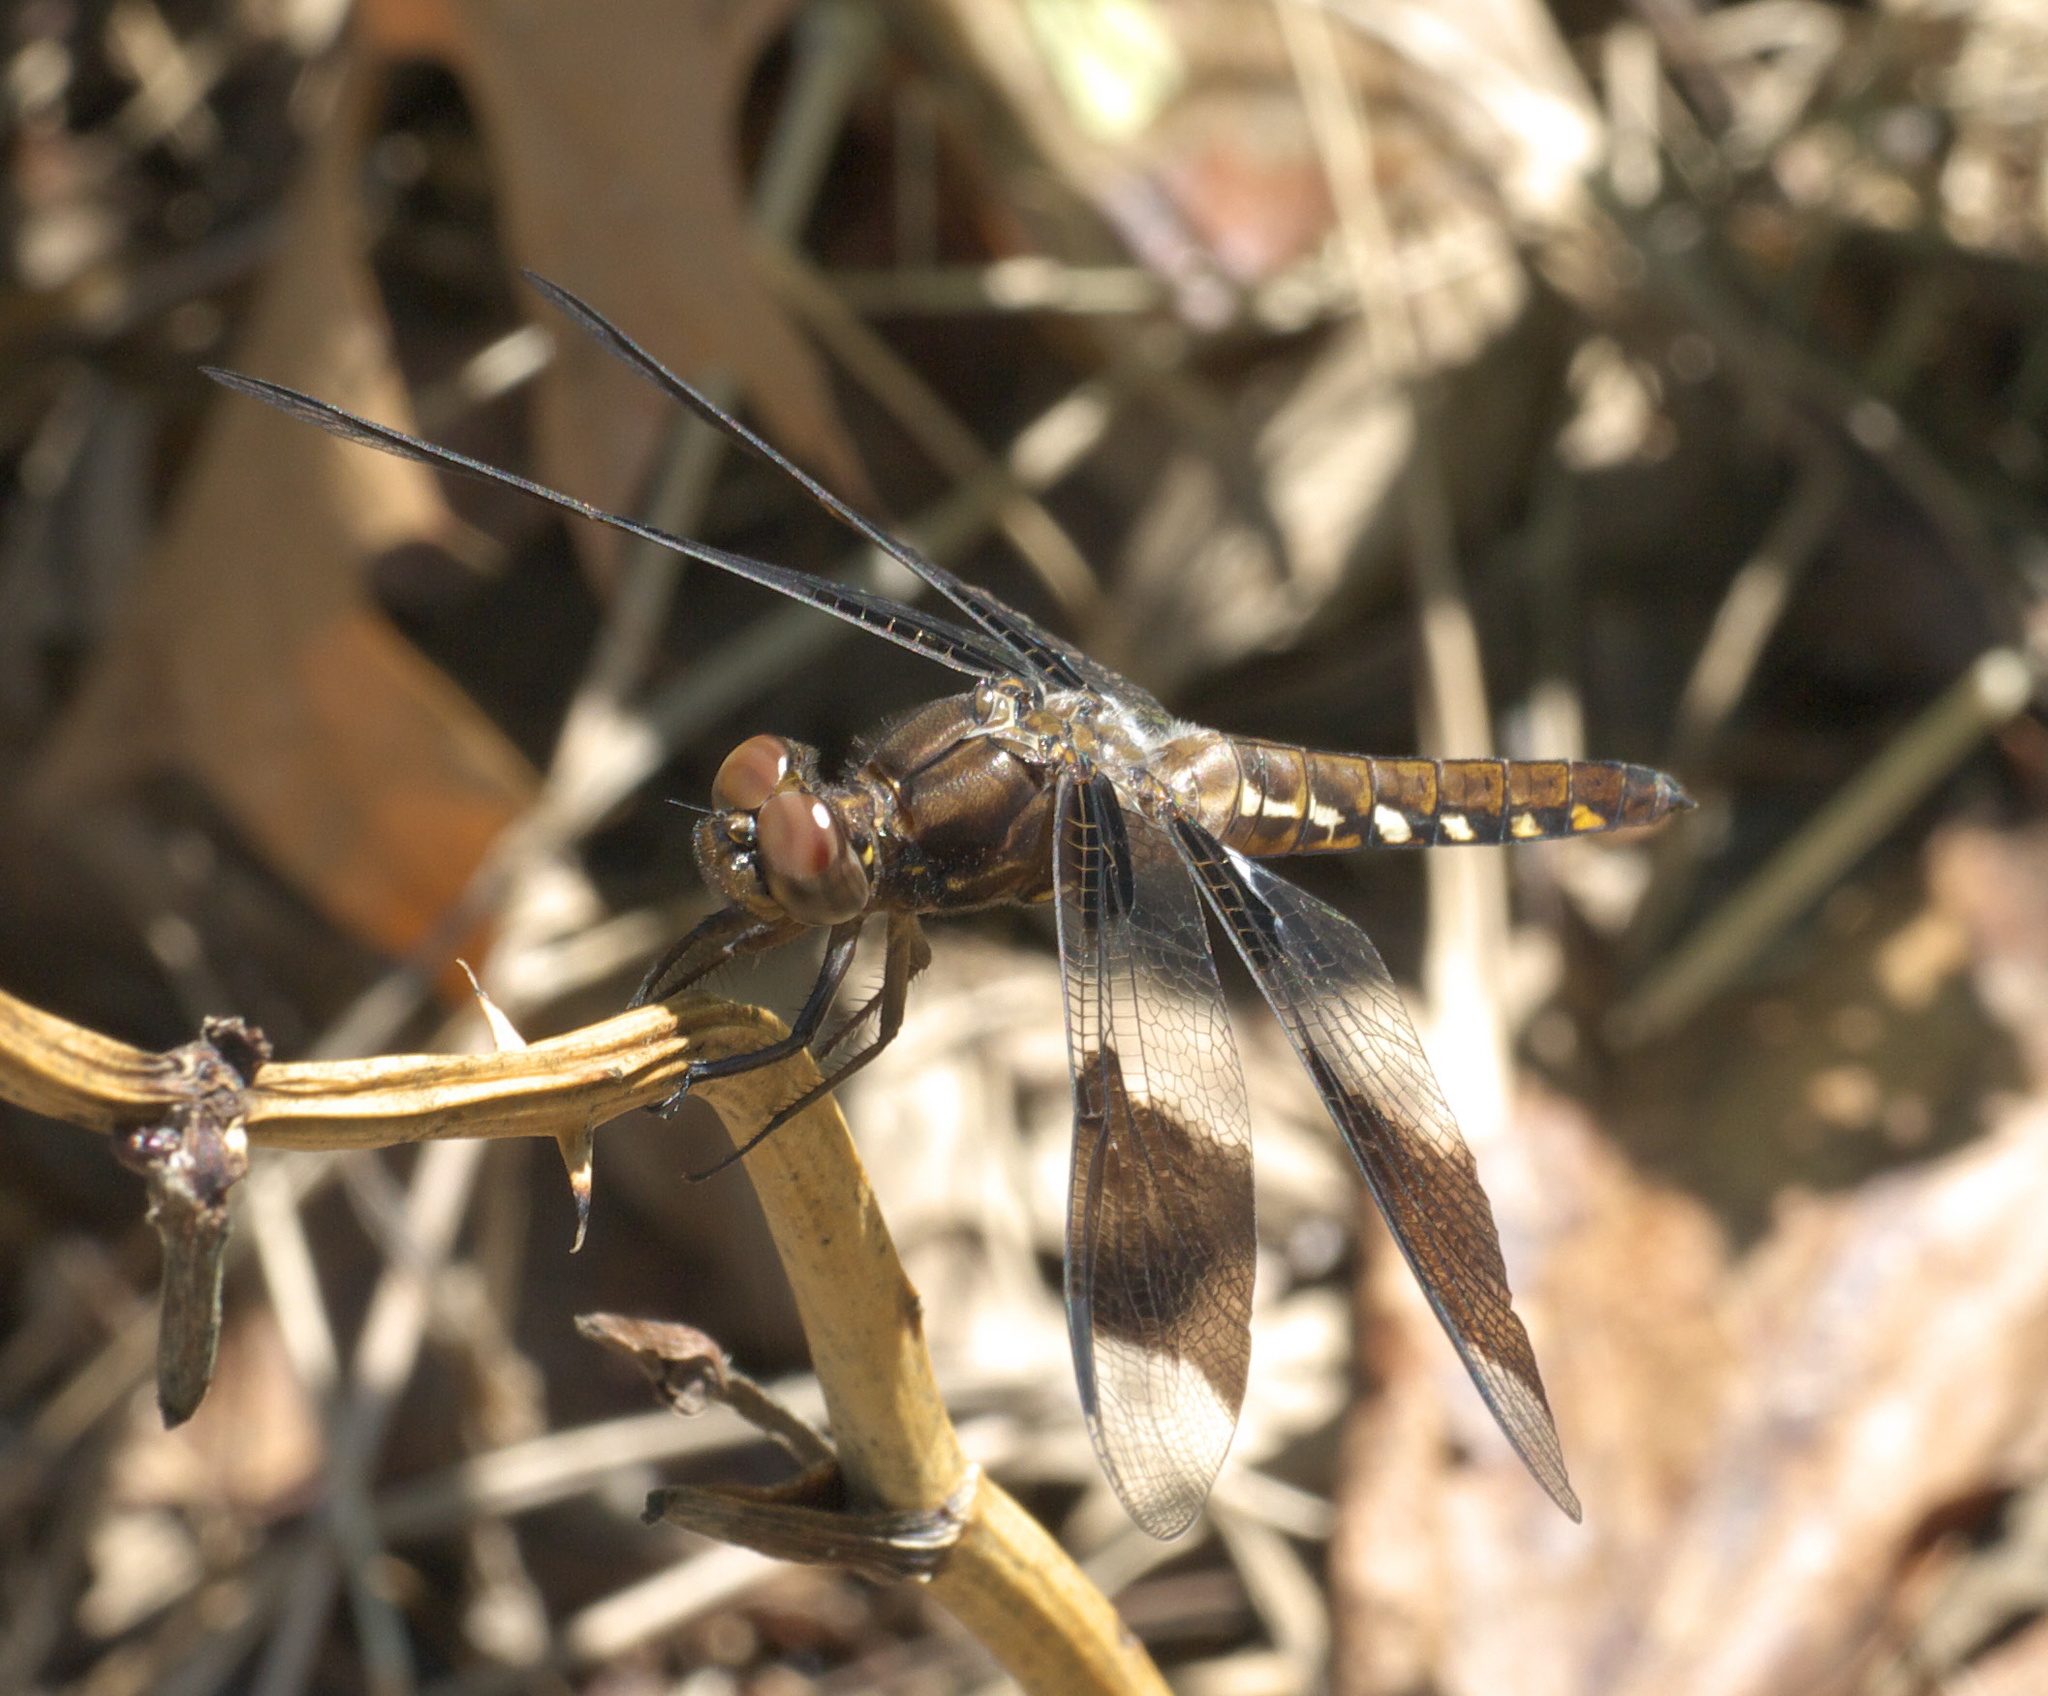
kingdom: Animalia
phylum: Arthropoda
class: Insecta
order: Odonata
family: Libellulidae
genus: Plathemis
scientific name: Plathemis lydia
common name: Common whitetail
